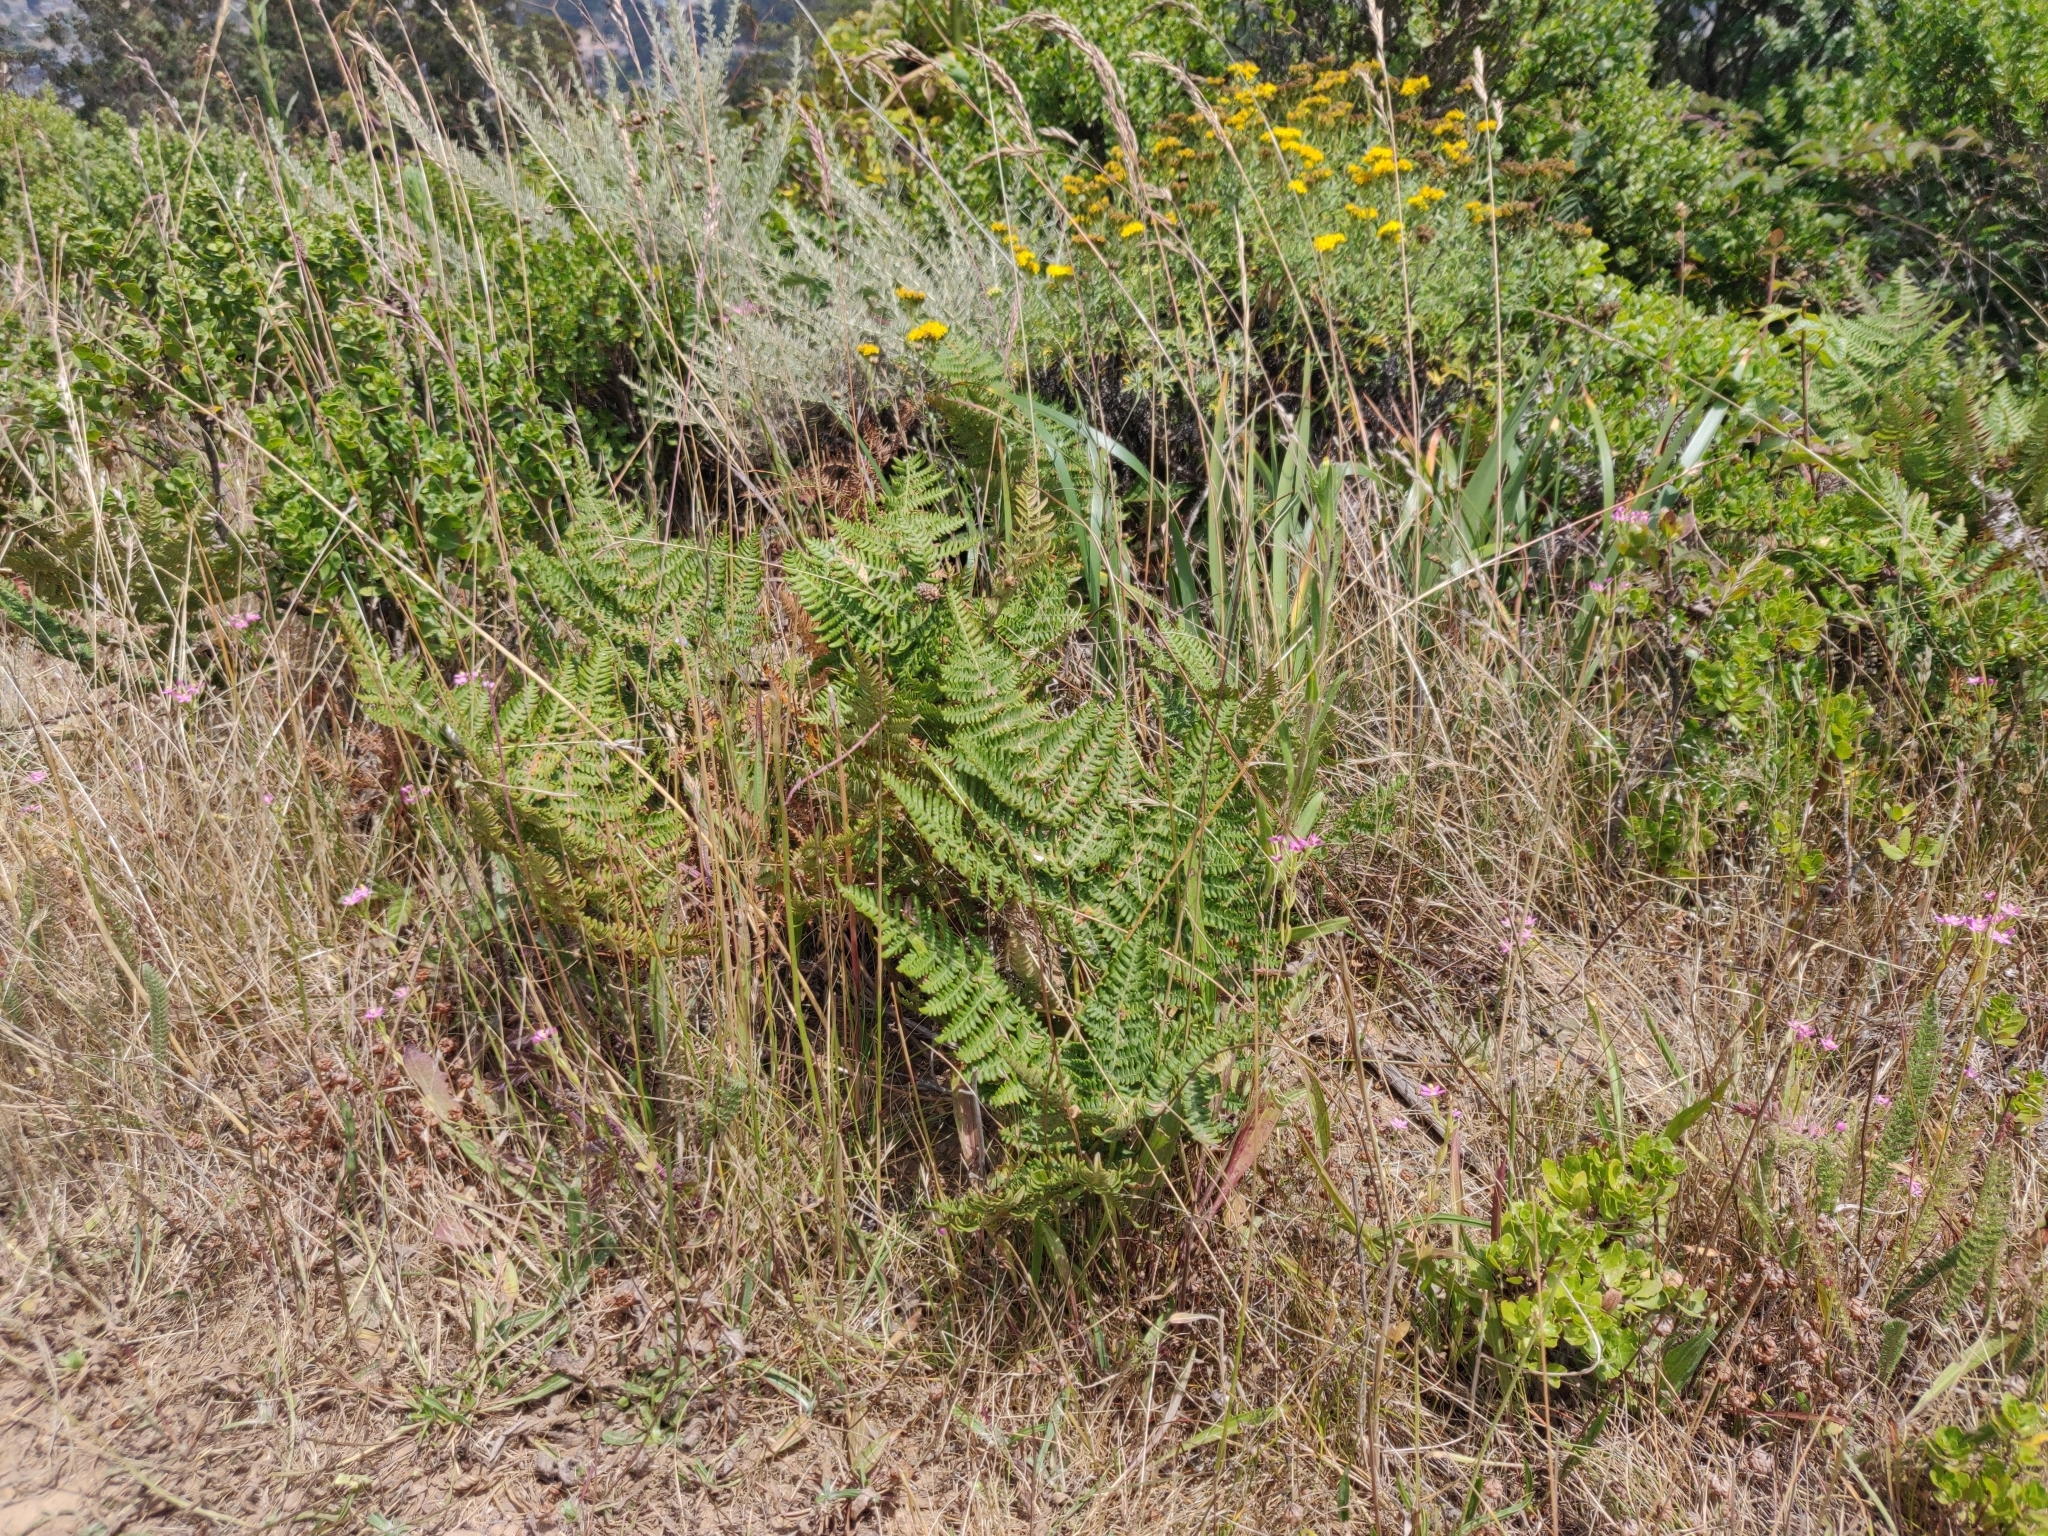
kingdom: Plantae
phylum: Tracheophyta
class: Polypodiopsida
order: Polypodiales
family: Dennstaedtiaceae
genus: Pteridium
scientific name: Pteridium aquilinum
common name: Bracken
